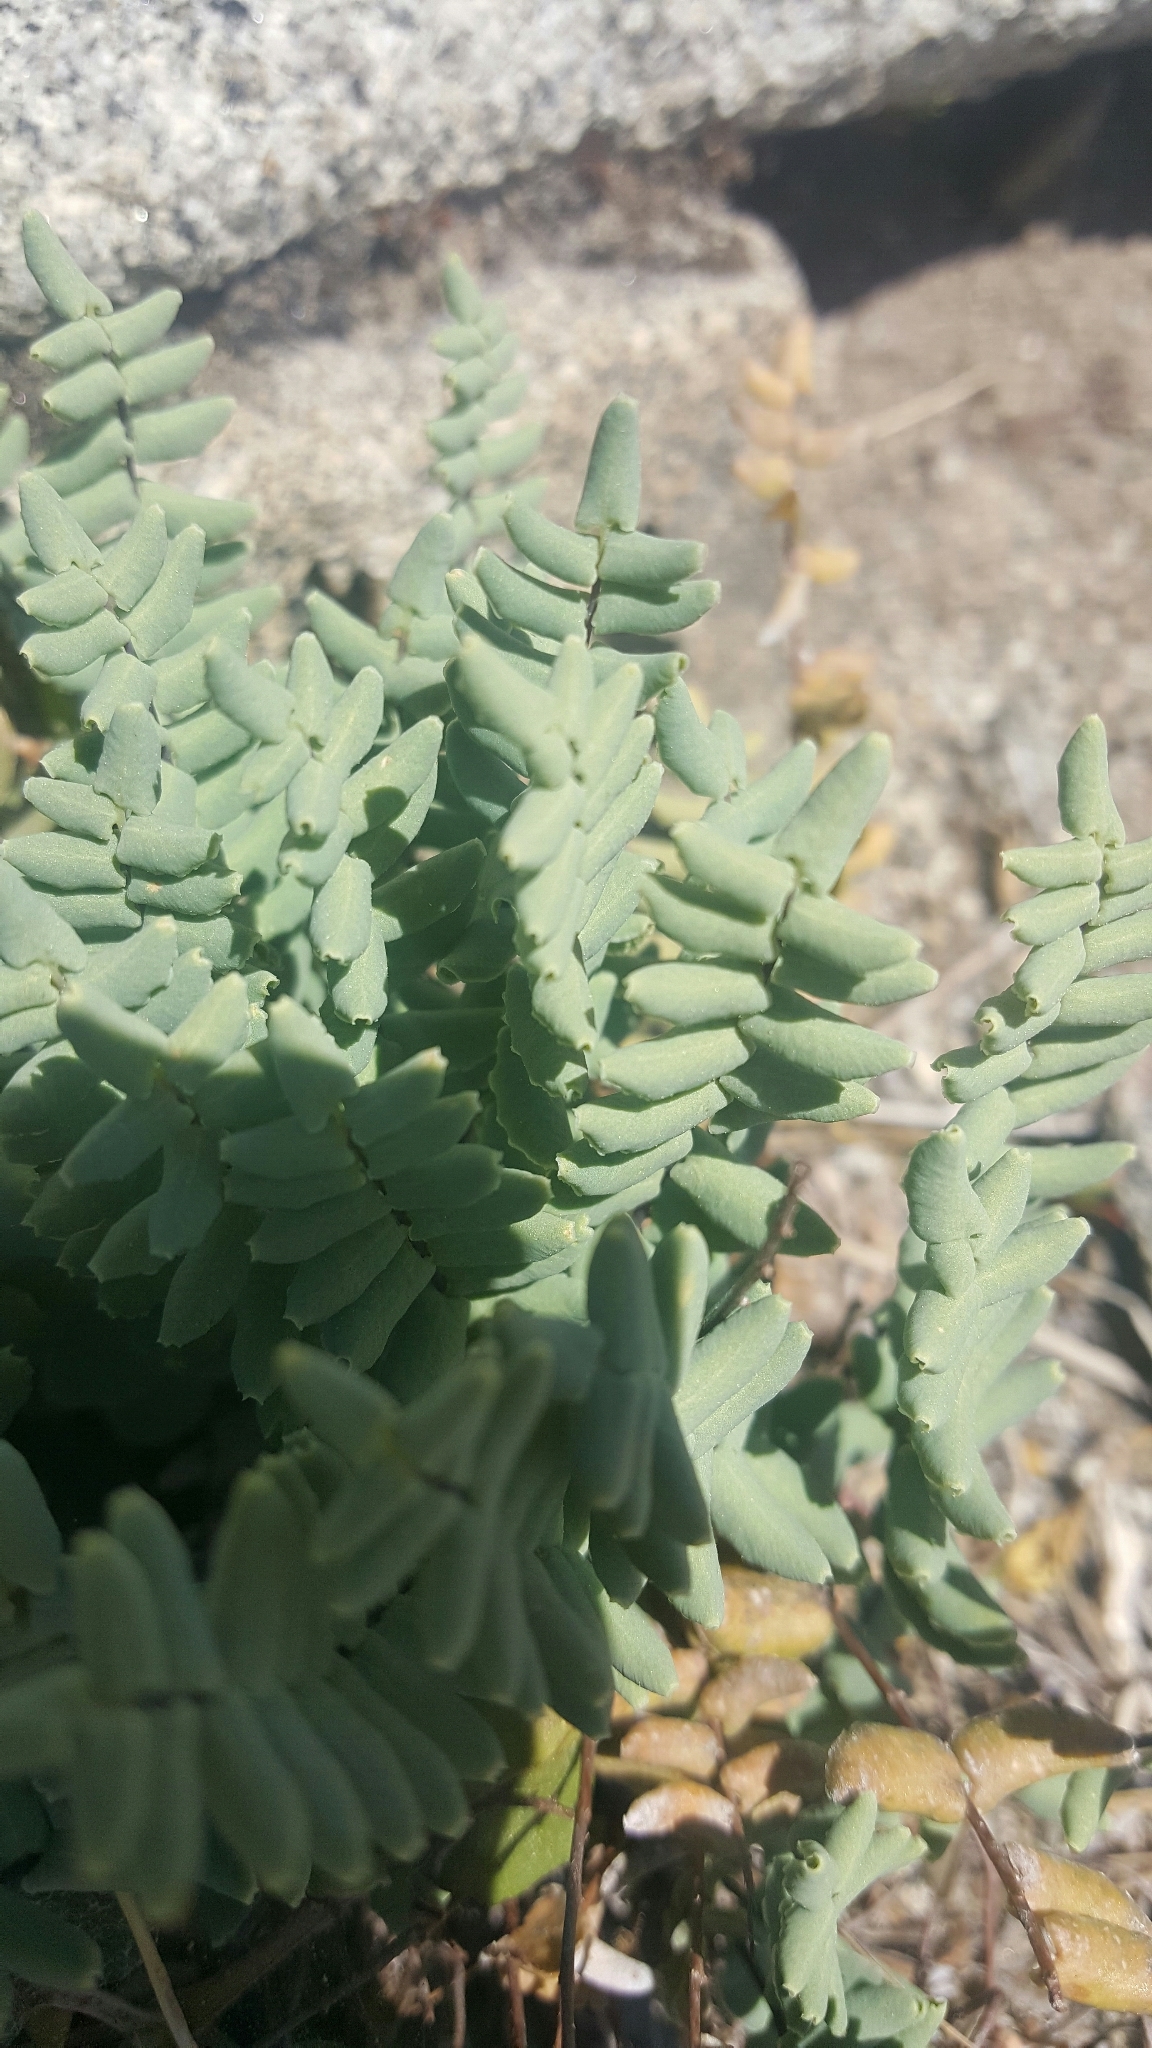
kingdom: Plantae
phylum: Tracheophyta
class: Polypodiopsida
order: Polypodiales
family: Pteridaceae
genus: Pellaea
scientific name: Pellaea bridgesii
